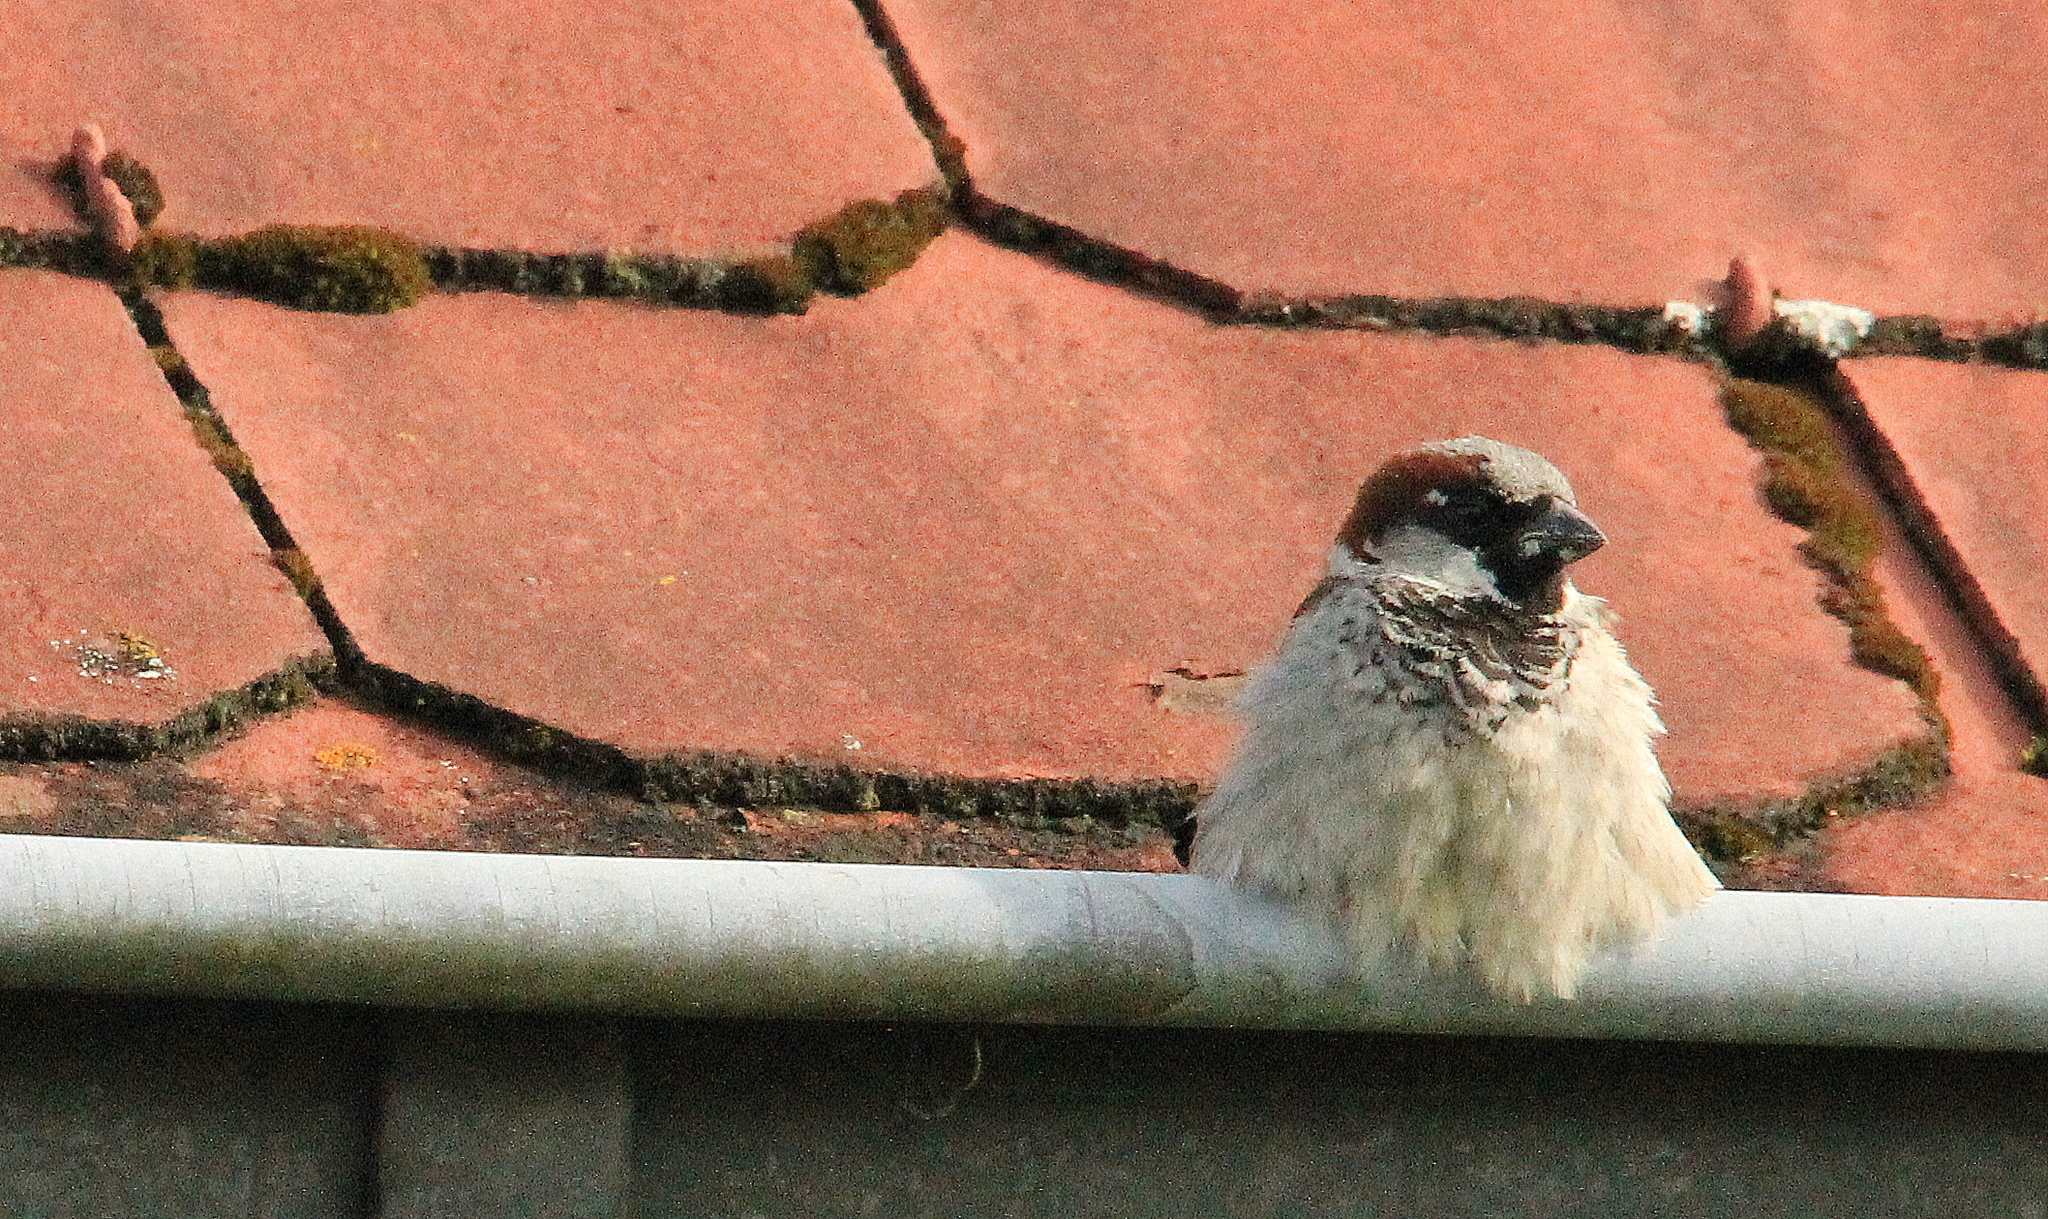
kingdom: Animalia
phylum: Chordata
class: Aves
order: Passeriformes
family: Passeridae
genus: Passer
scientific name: Passer domesticus
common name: House sparrow
